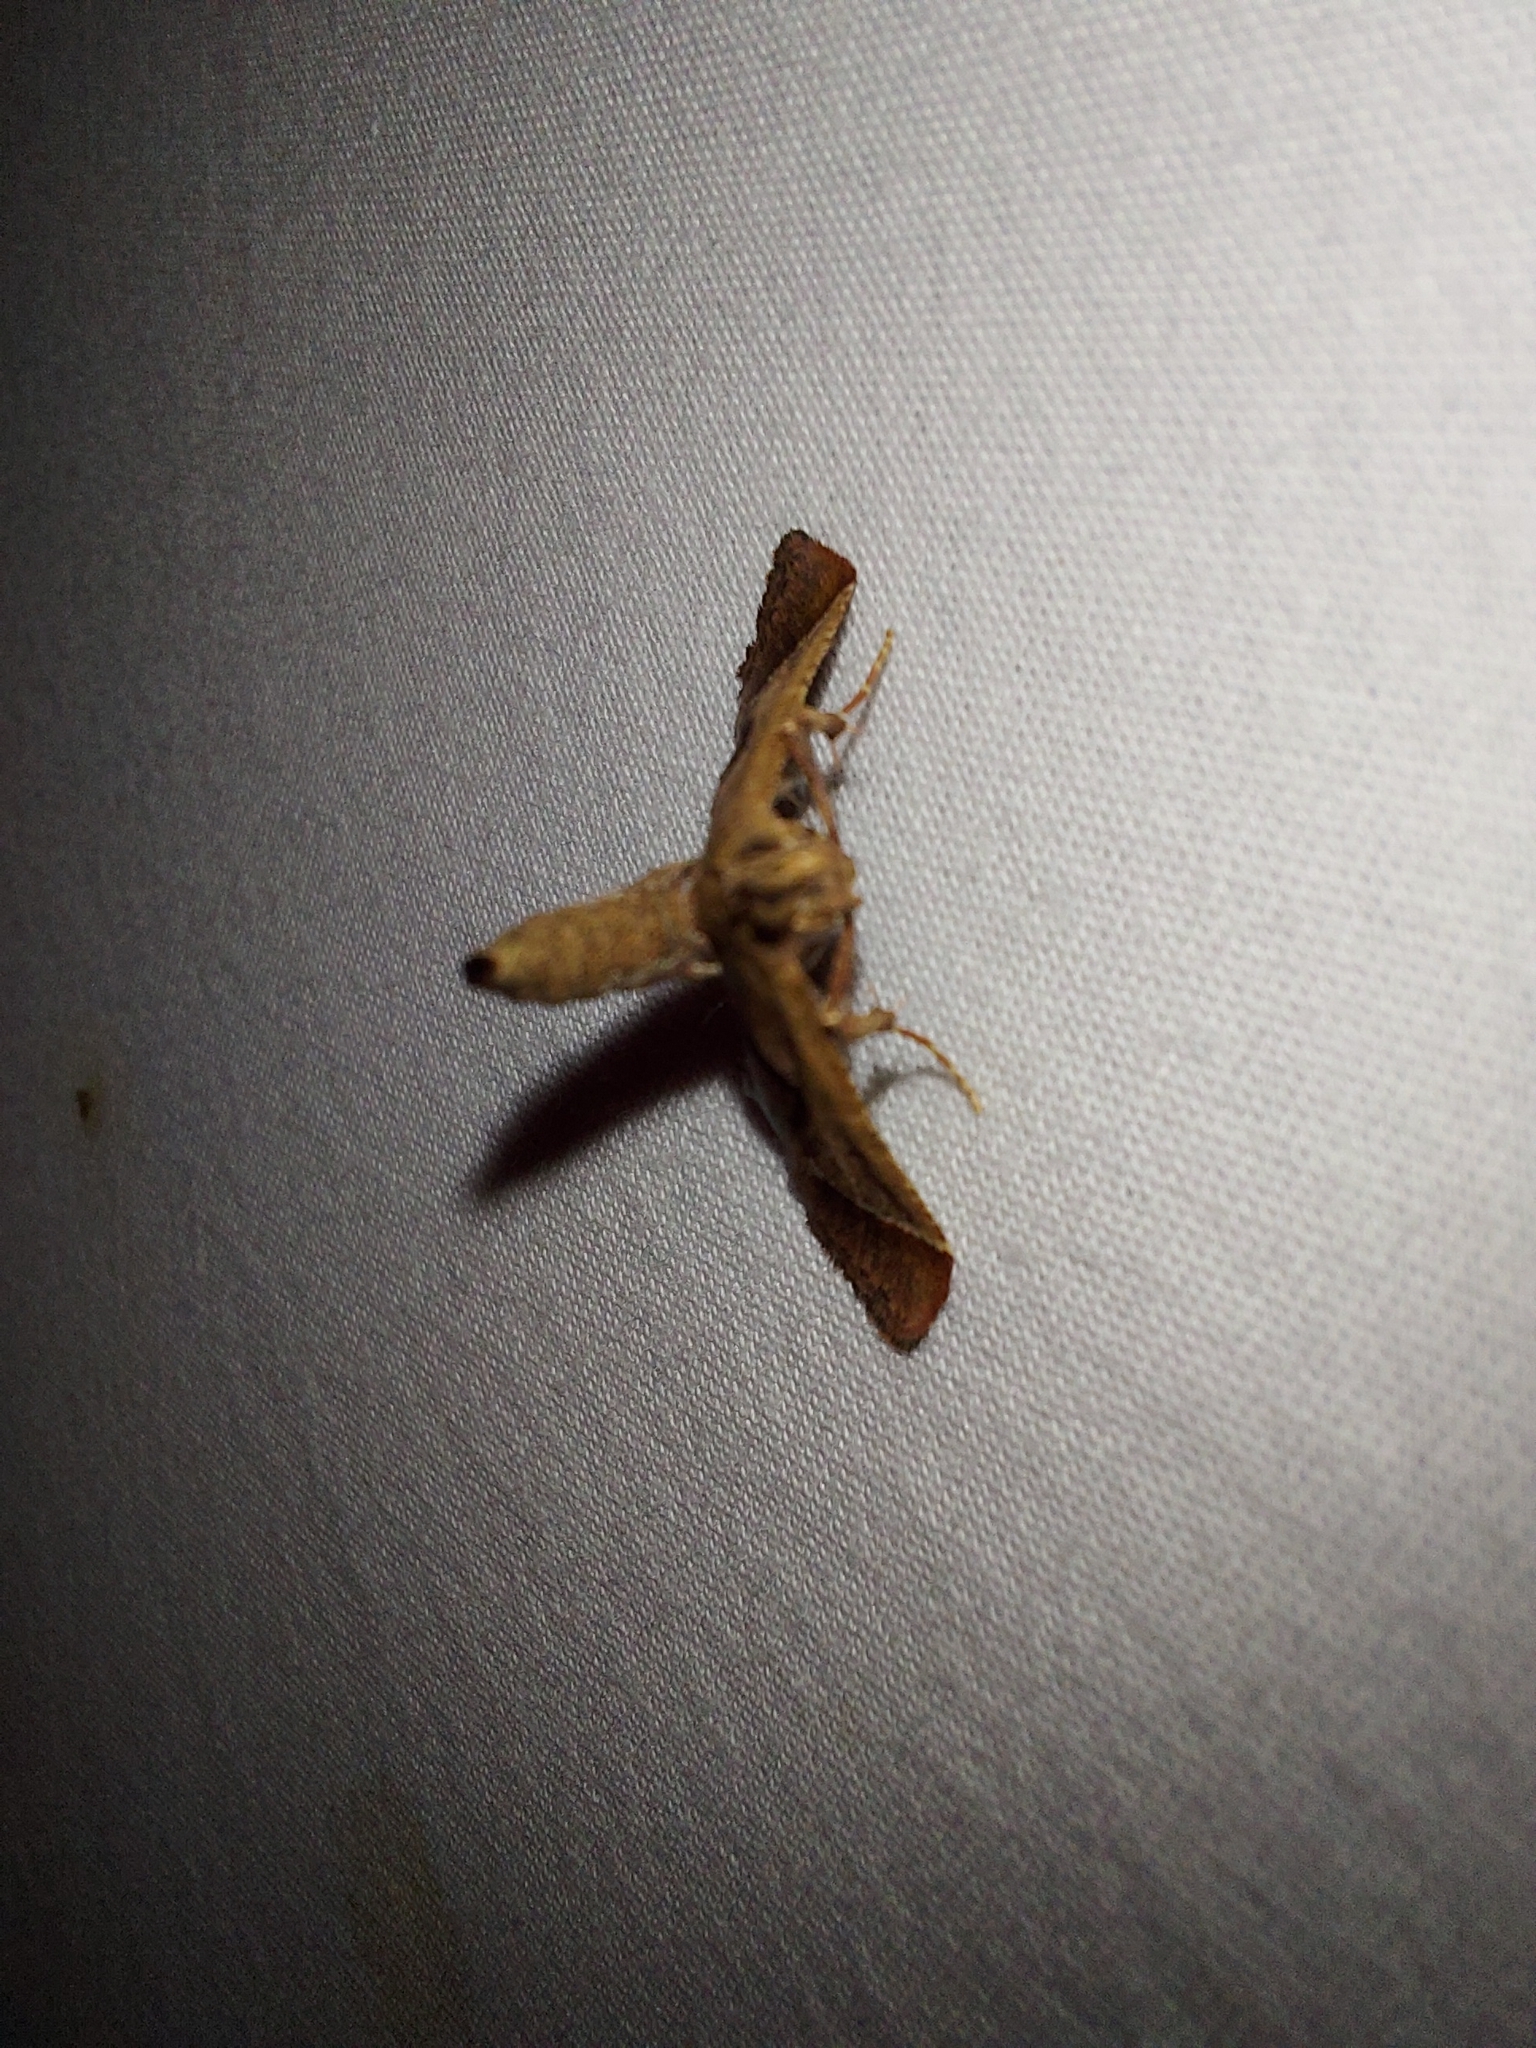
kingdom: Animalia
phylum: Arthropoda
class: Insecta
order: Lepidoptera
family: Pyralidae
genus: Gauna
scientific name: Gauna aegusalis
